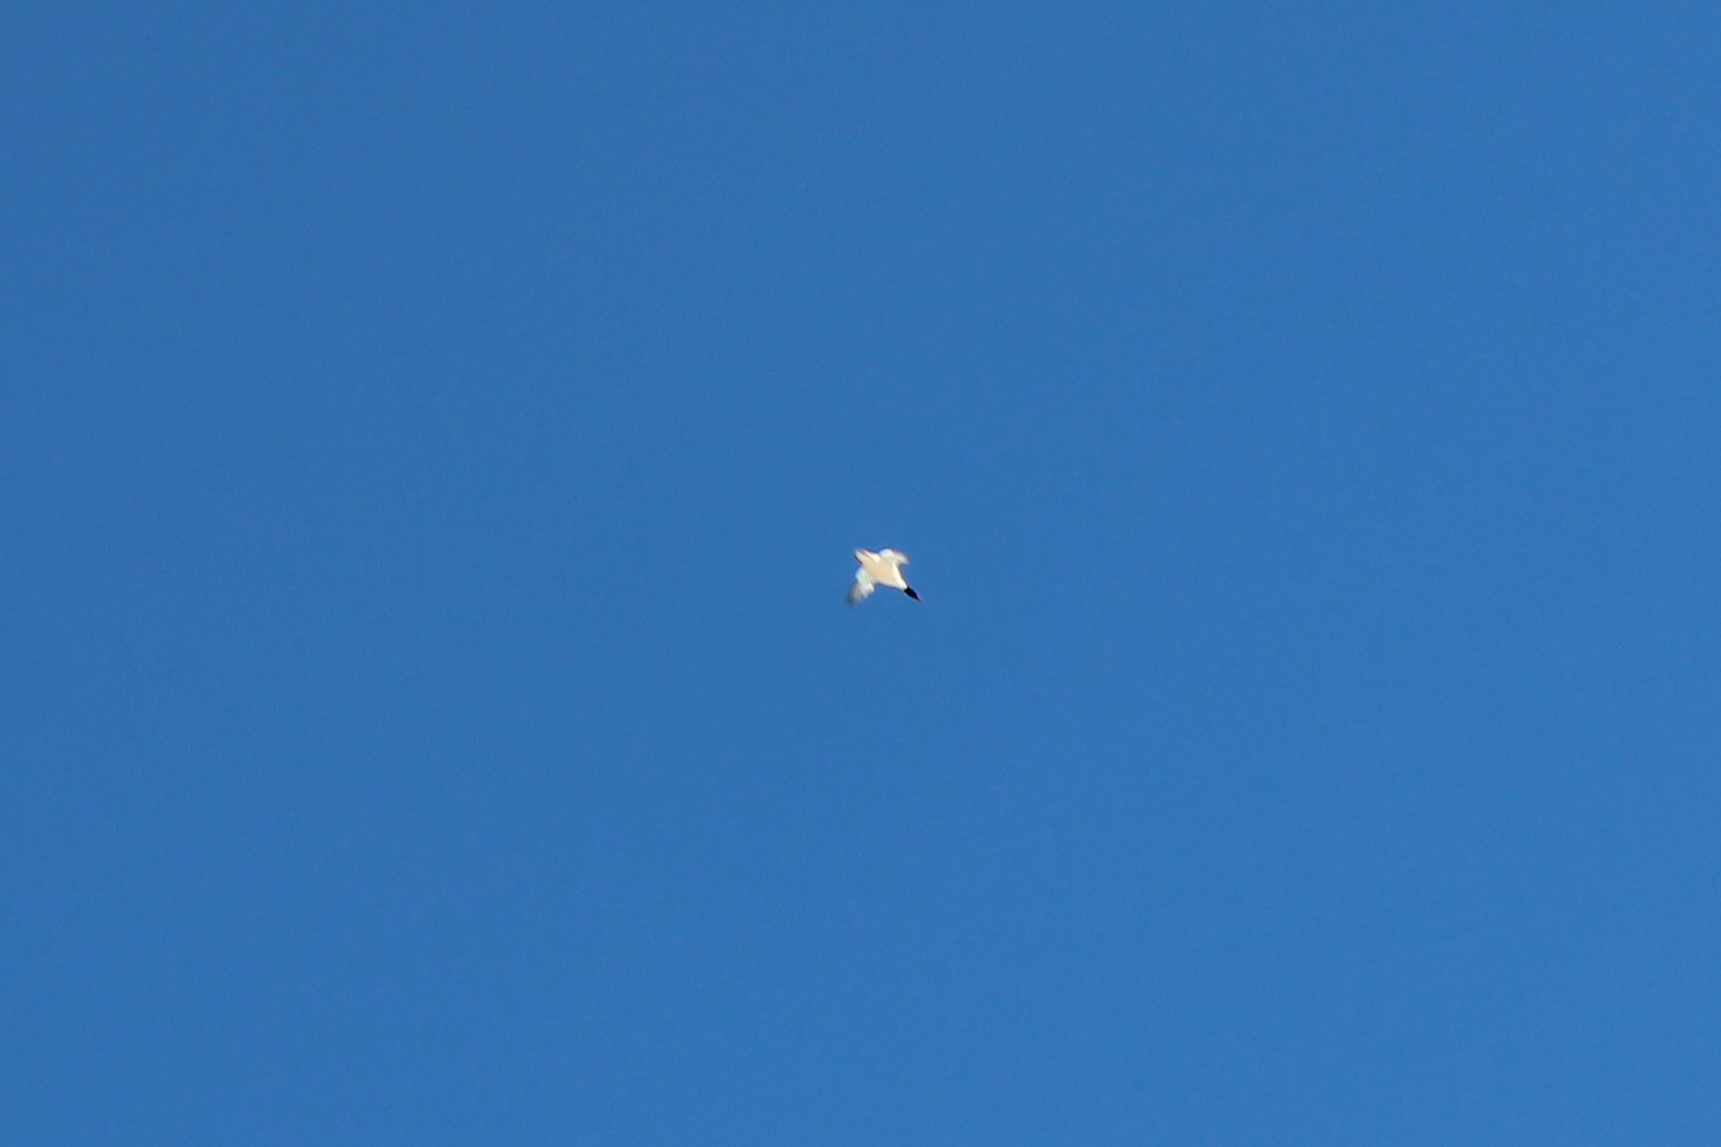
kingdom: Animalia
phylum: Chordata
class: Aves
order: Anseriformes
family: Anatidae
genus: Mergus
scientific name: Mergus merganser
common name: Common merganser
